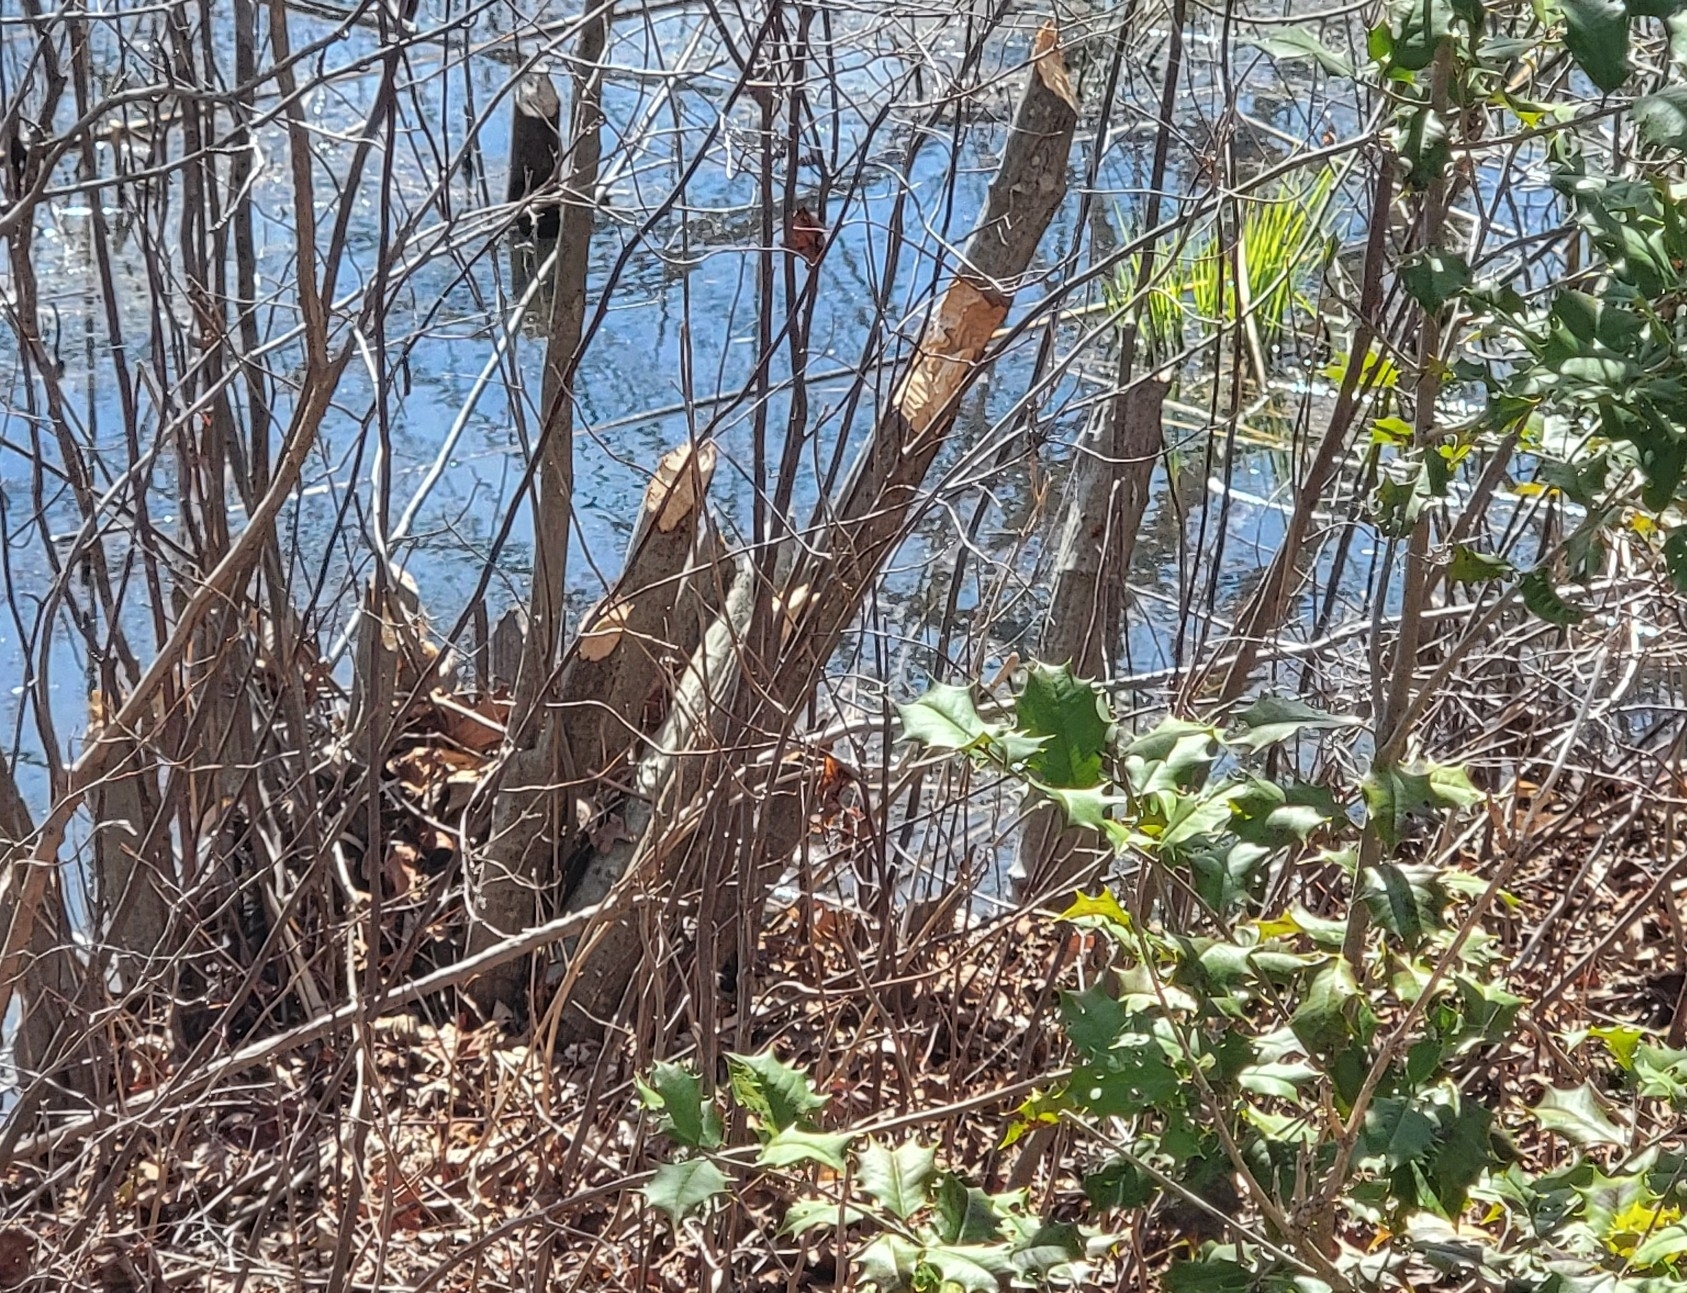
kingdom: Animalia
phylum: Chordata
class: Mammalia
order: Rodentia
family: Castoridae
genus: Castor
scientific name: Castor canadensis
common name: American beaver
